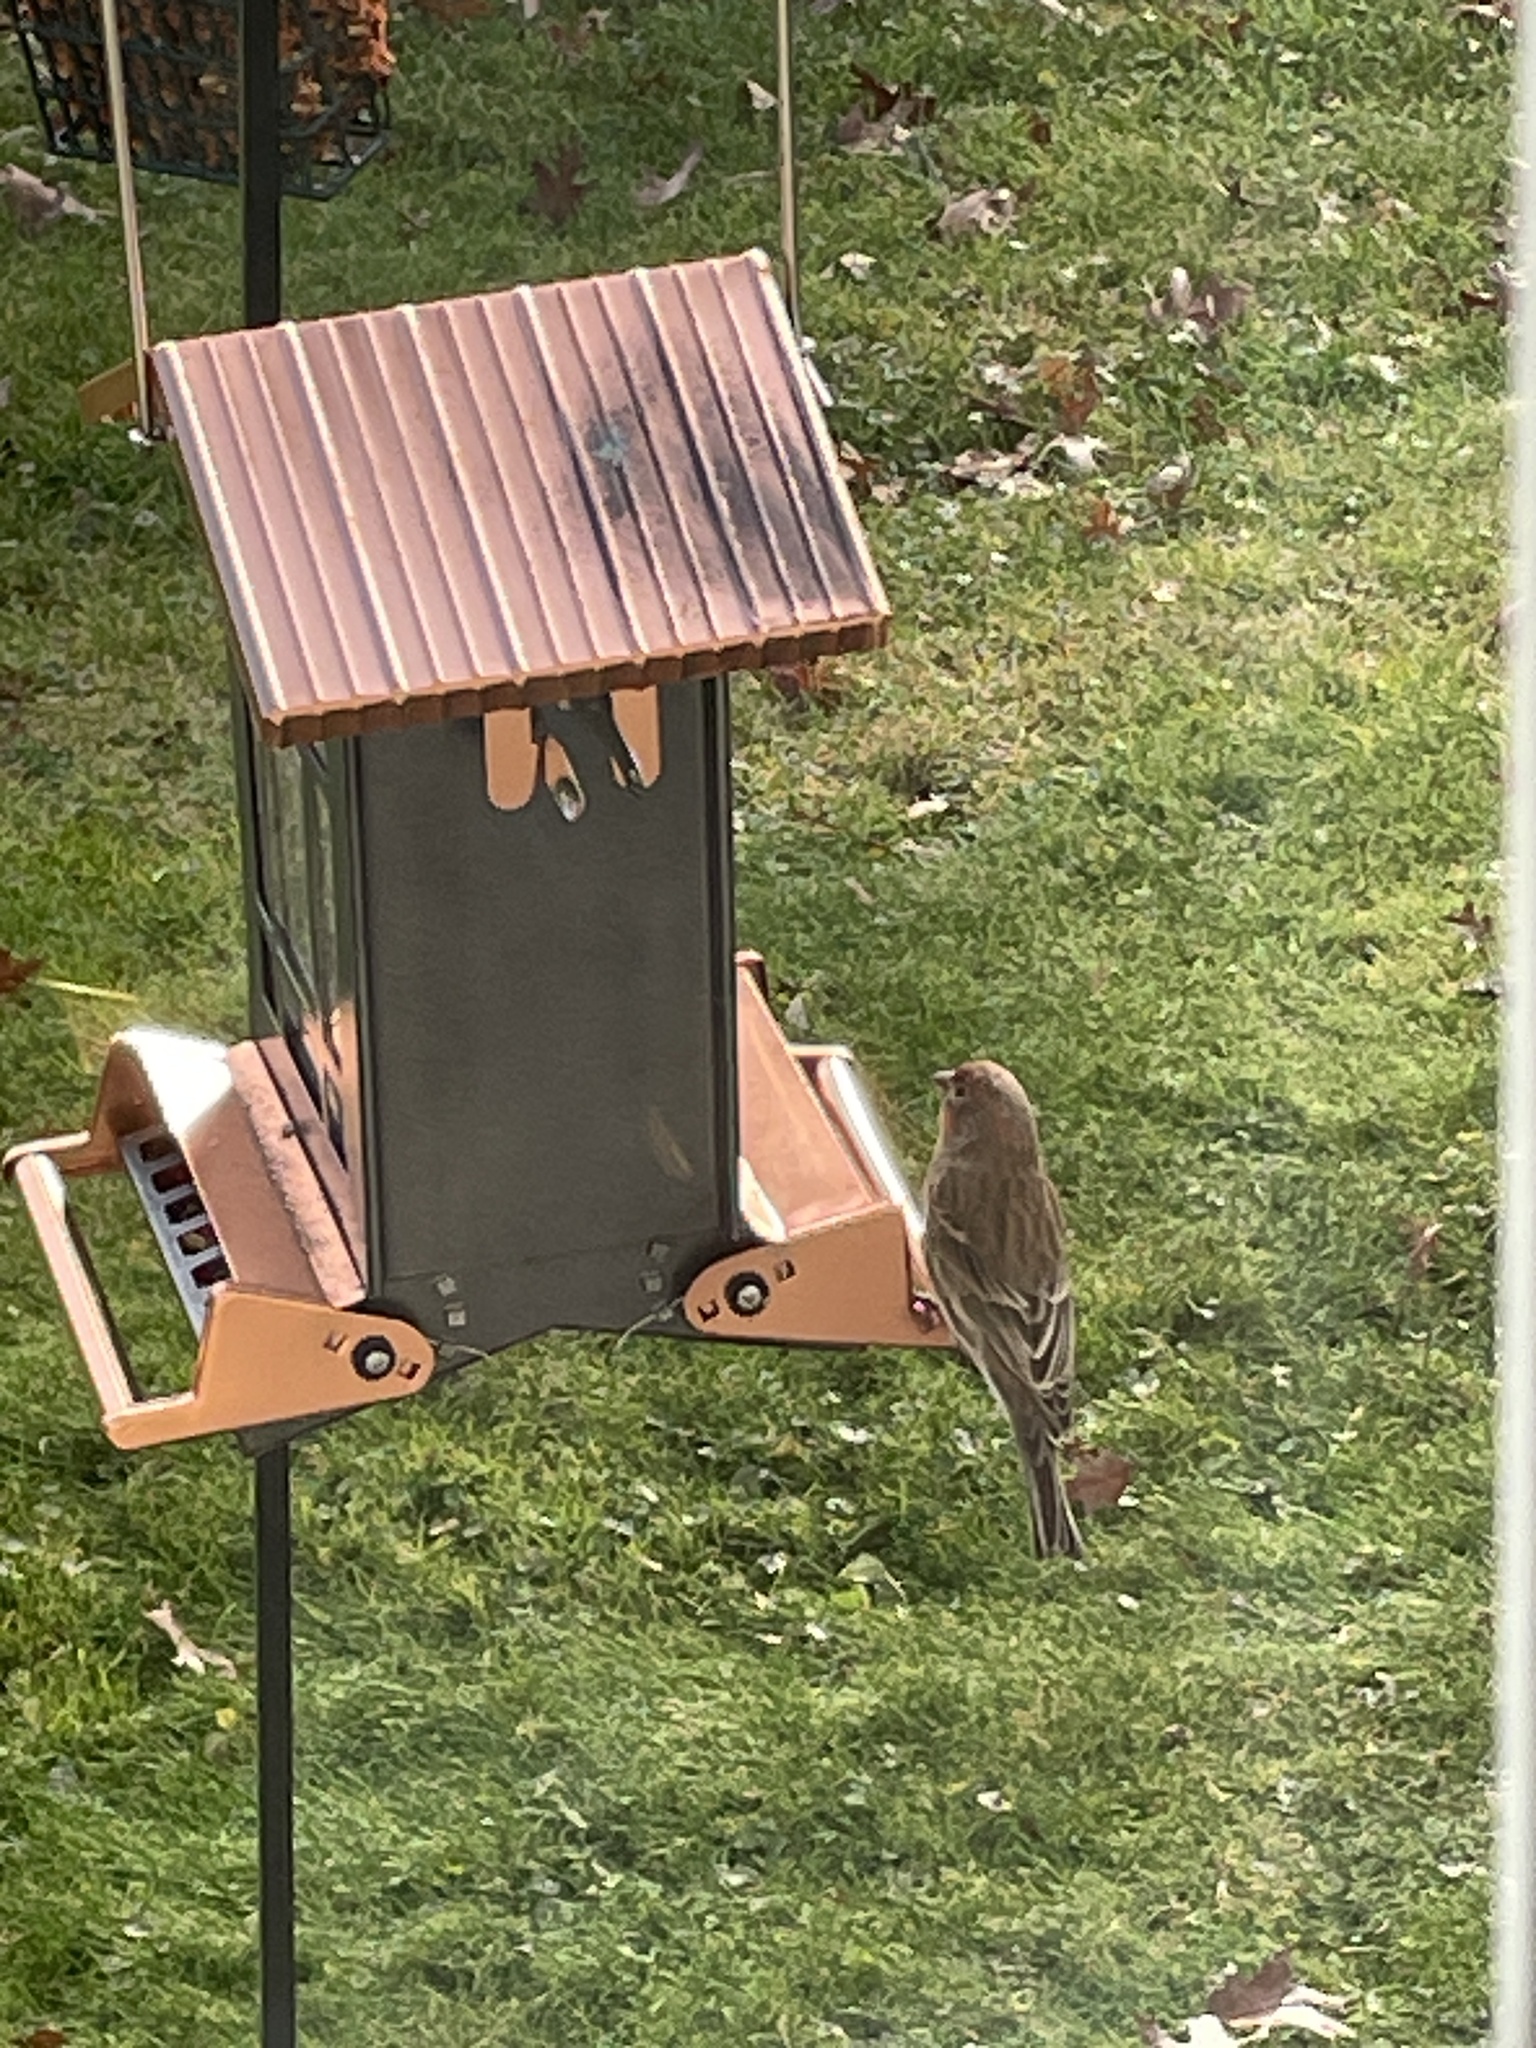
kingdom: Animalia
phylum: Chordata
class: Aves
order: Passeriformes
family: Fringillidae
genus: Haemorhous
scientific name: Haemorhous mexicanus
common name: House finch
